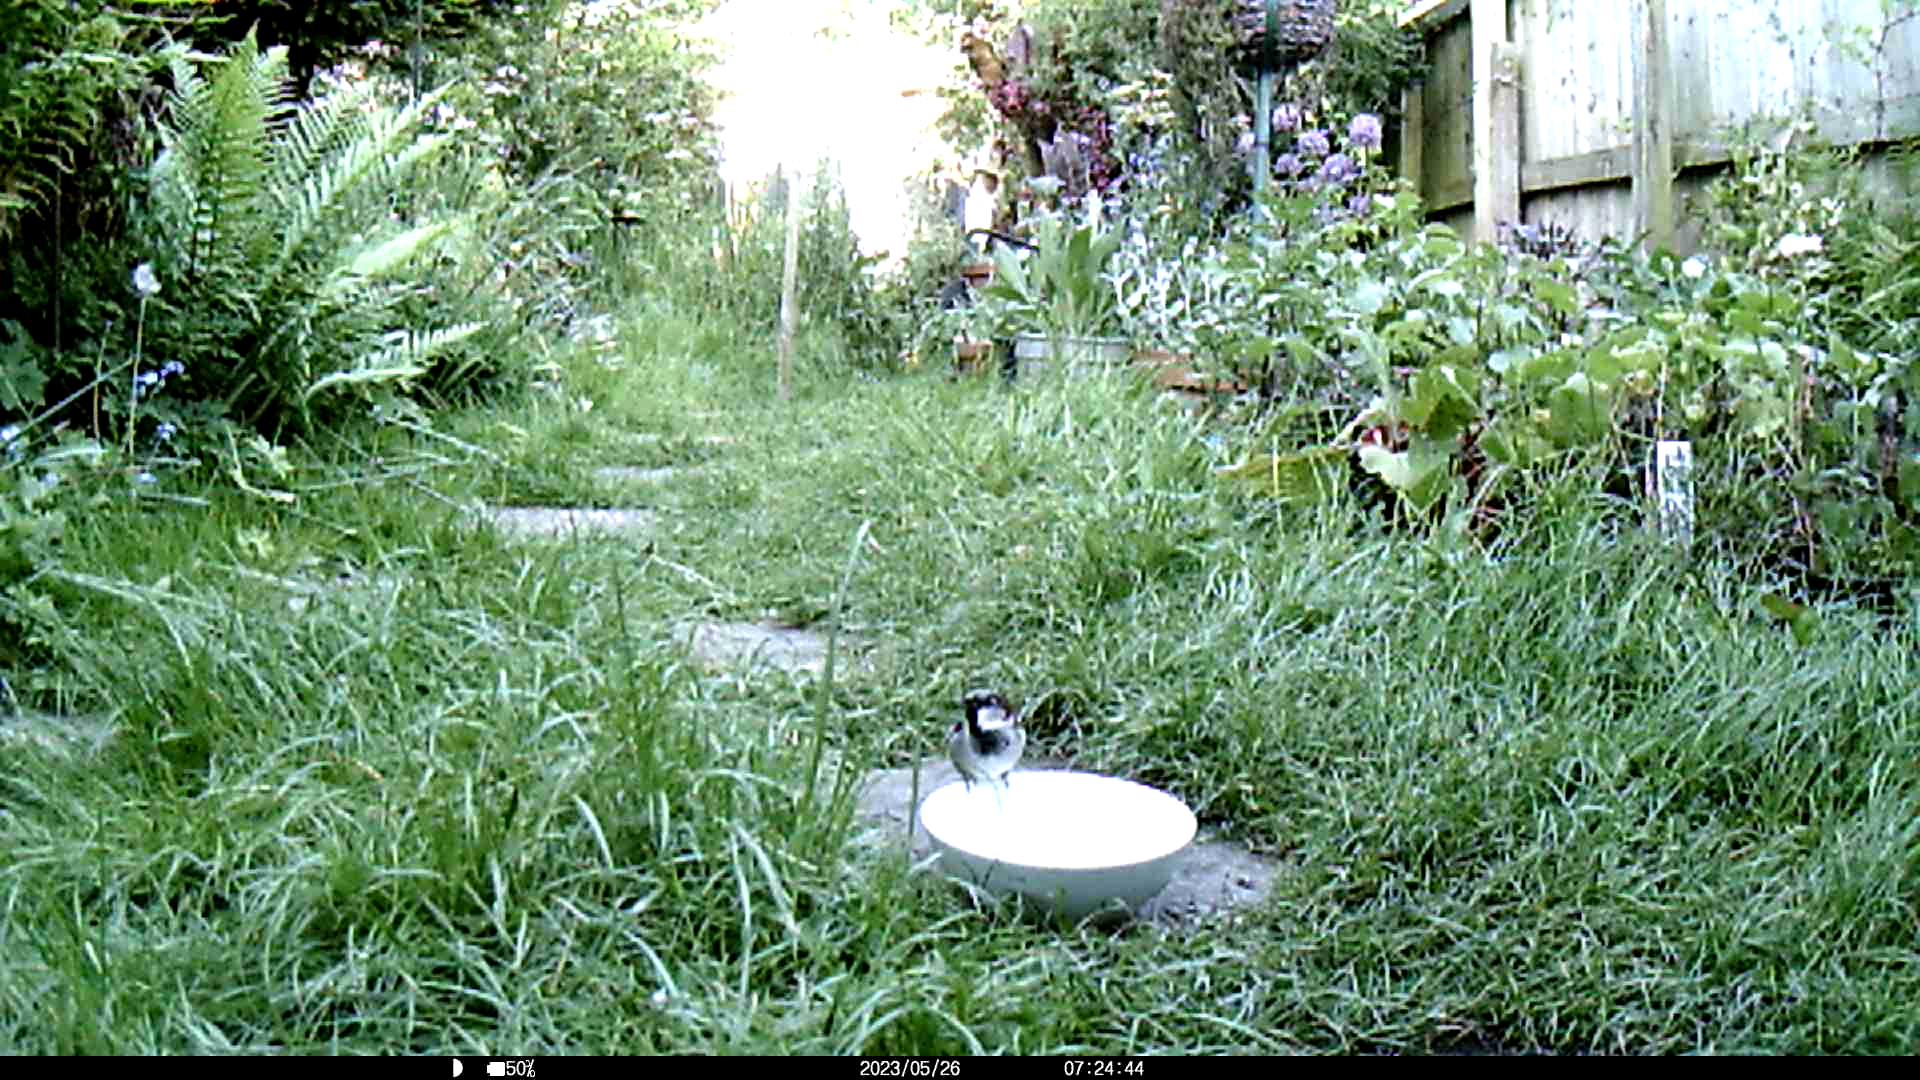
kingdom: Animalia
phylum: Chordata
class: Aves
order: Passeriformes
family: Passeridae
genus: Passer
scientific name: Passer domesticus
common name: House sparrow
